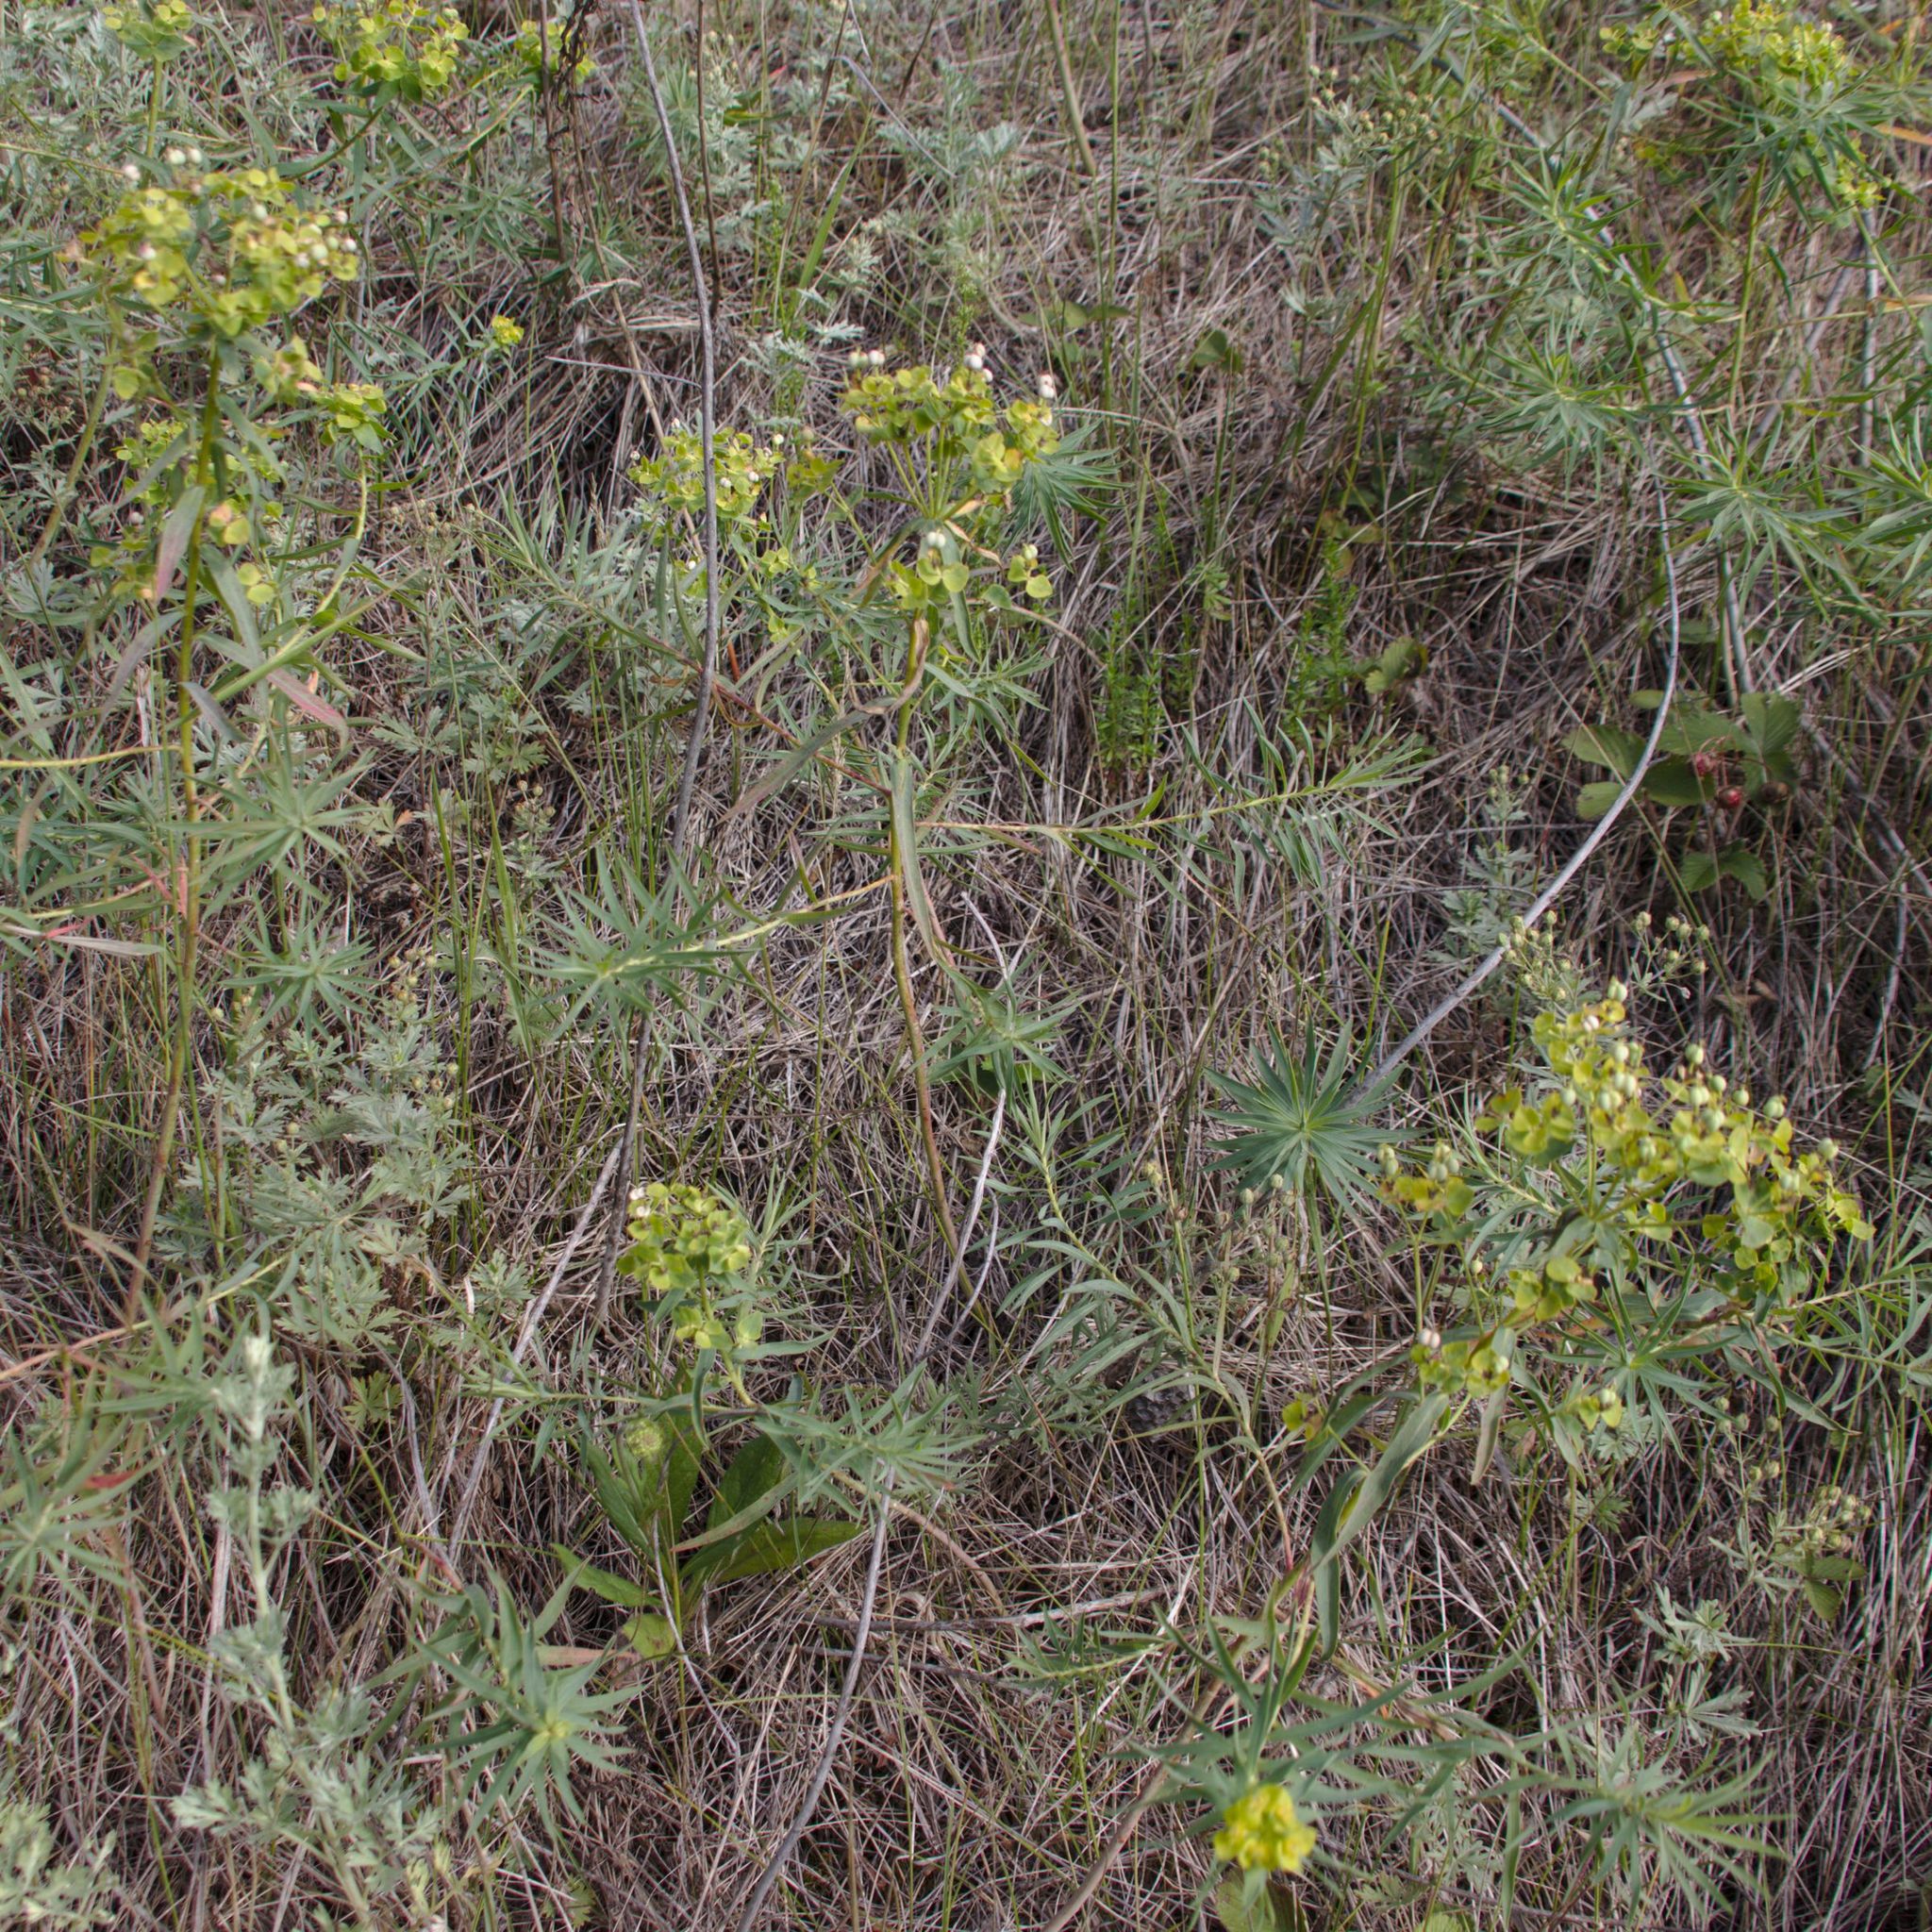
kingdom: Plantae
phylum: Tracheophyta
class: Magnoliopsida
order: Malpighiales
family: Euphorbiaceae
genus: Euphorbia
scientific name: Euphorbia virgata
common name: Leafy spurge
